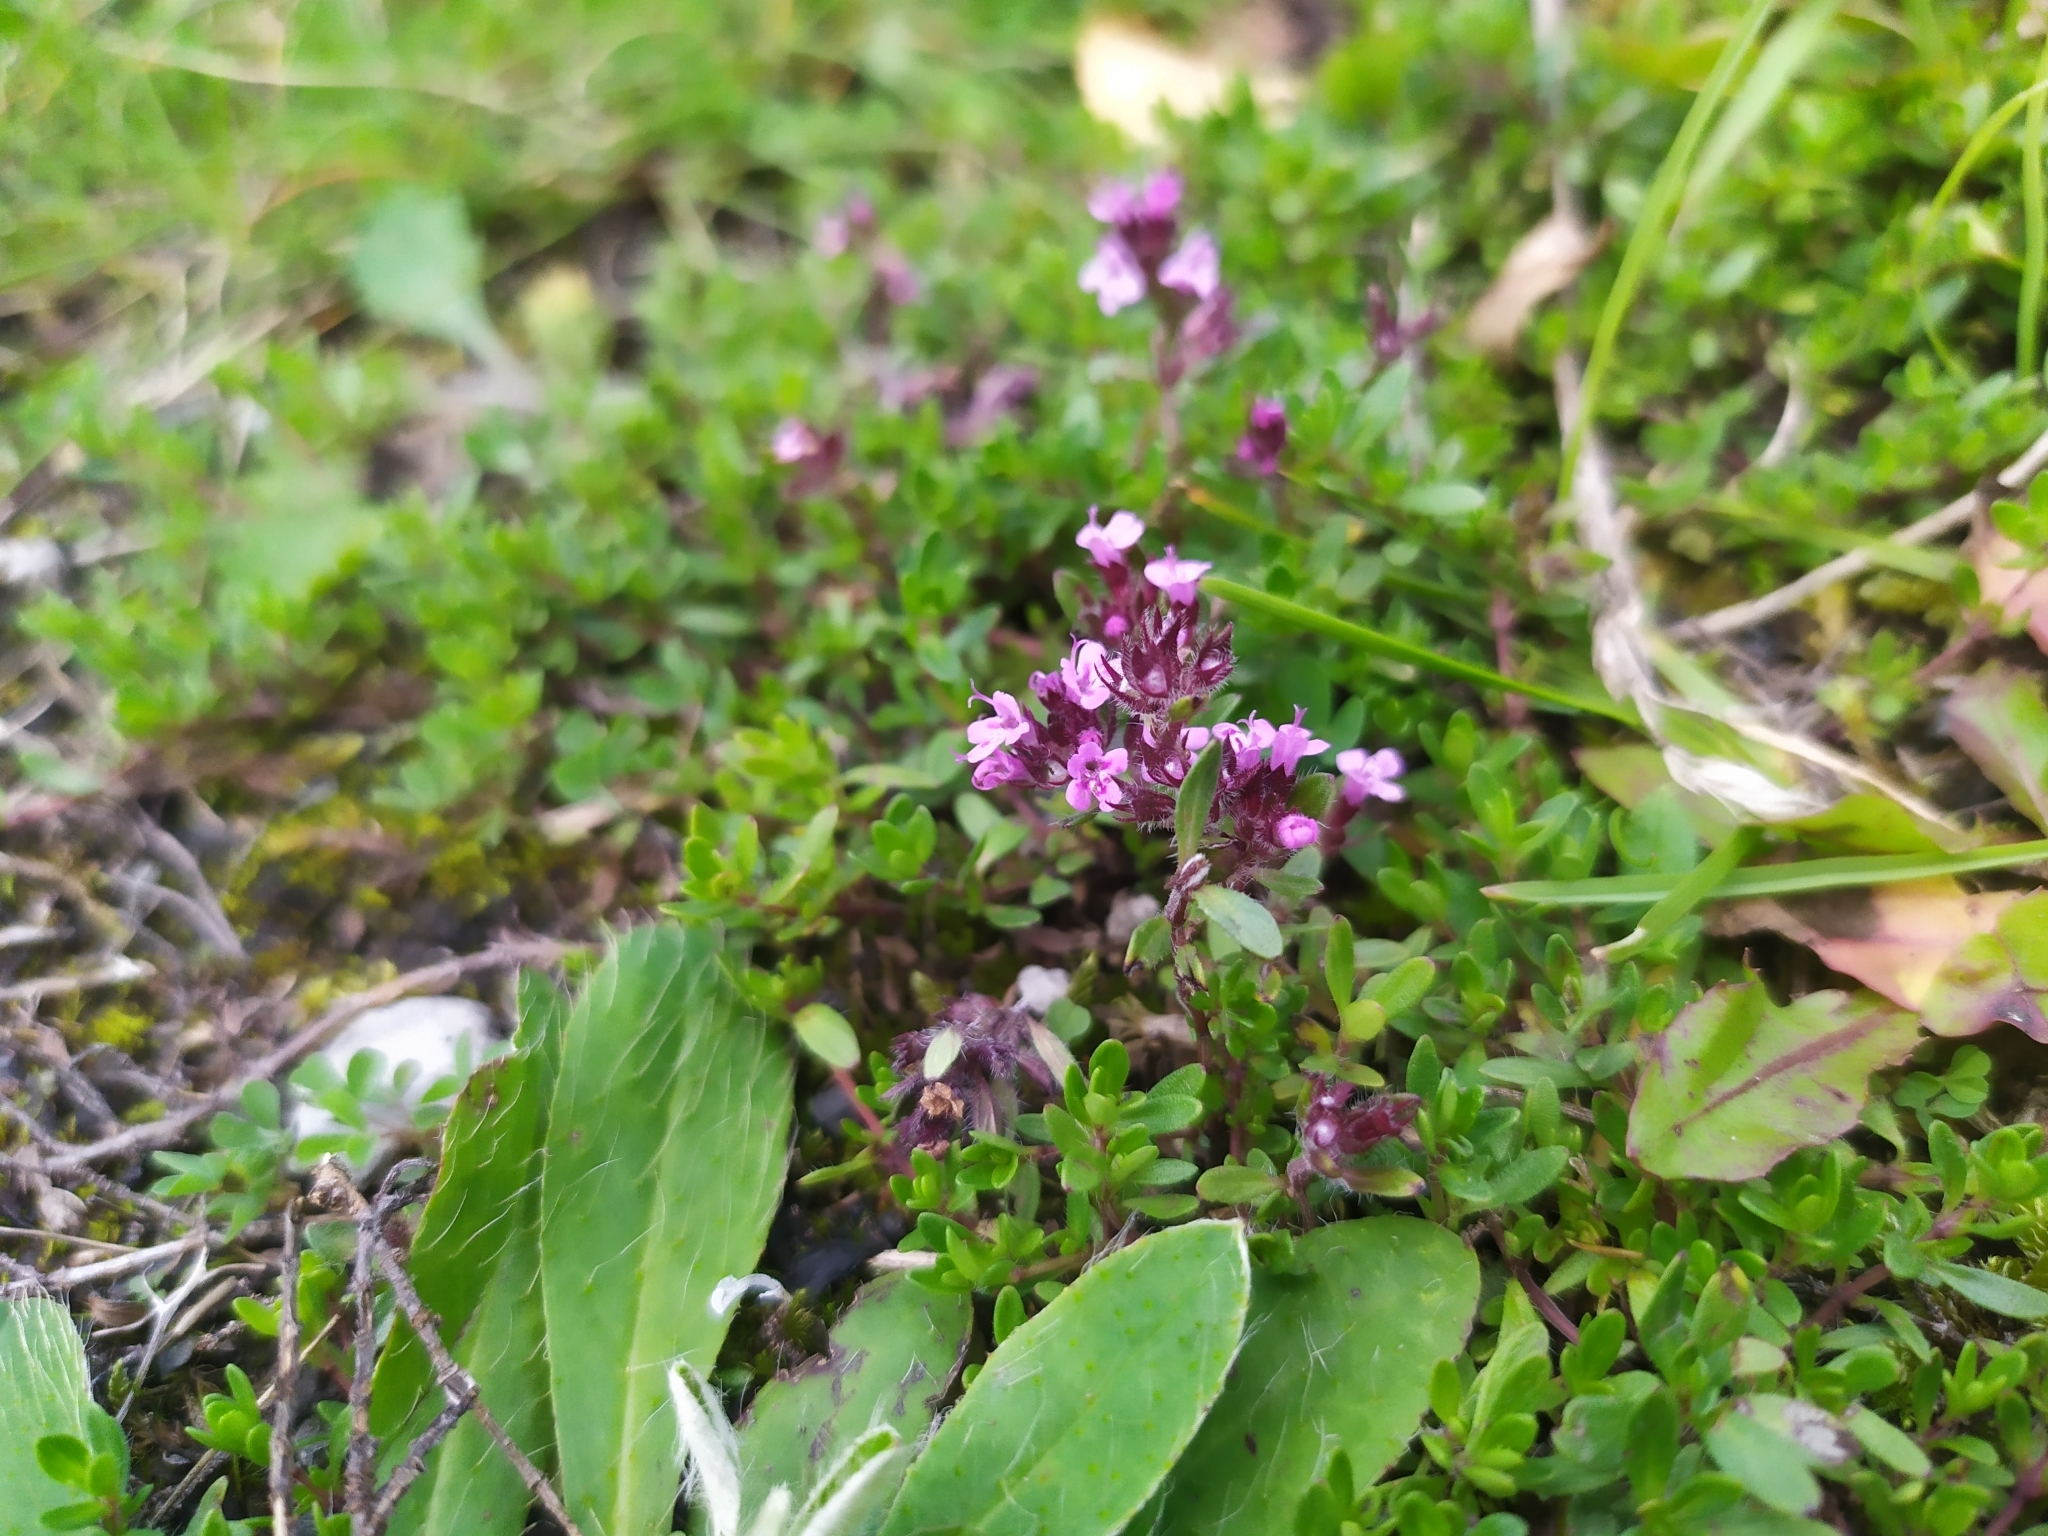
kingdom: Plantae
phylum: Tracheophyta
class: Magnoliopsida
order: Lamiales
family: Lamiaceae
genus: Thymus
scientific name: Thymus praecox
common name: Wild thyme
